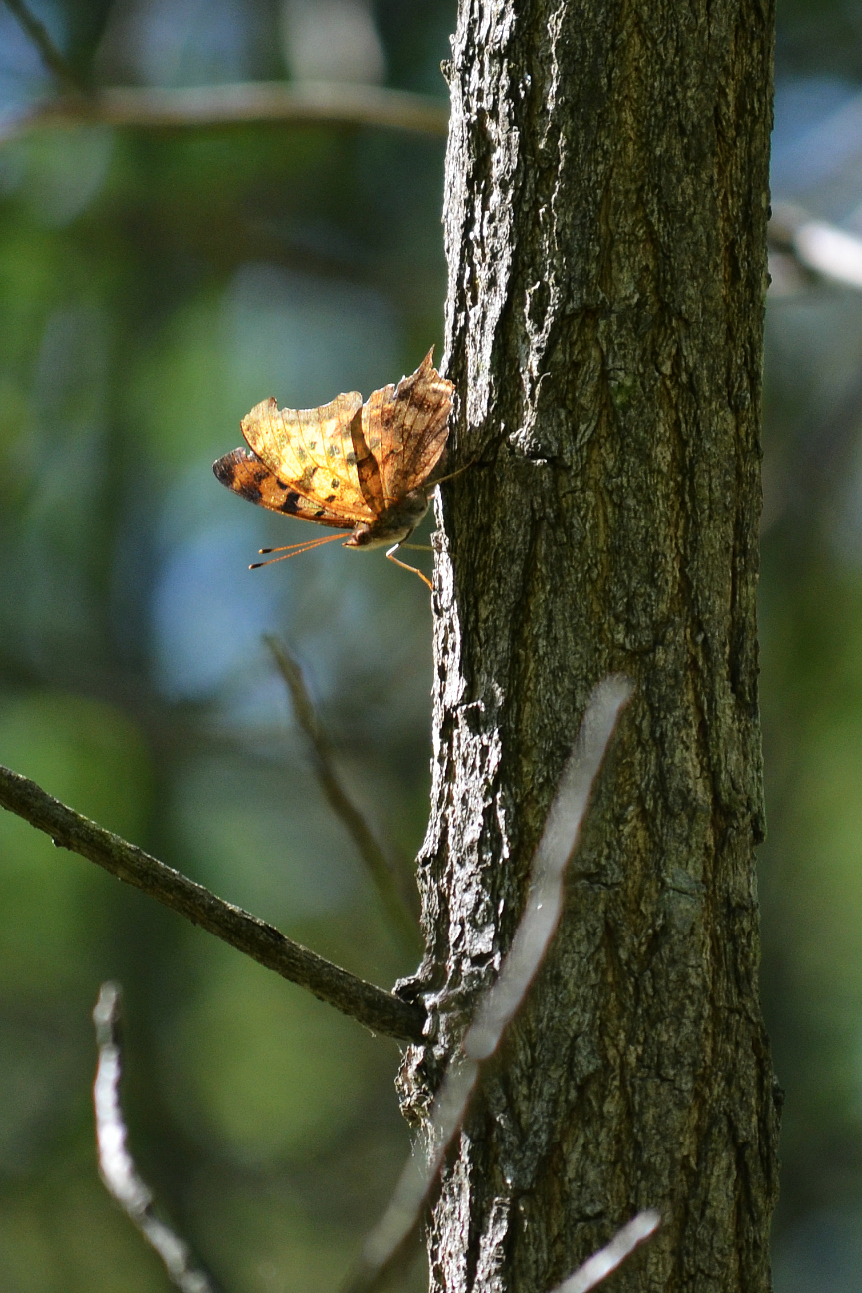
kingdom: Animalia
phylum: Arthropoda
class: Insecta
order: Lepidoptera
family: Nymphalidae
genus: Polygonia
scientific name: Polygonia interrogationis
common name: Question mark
